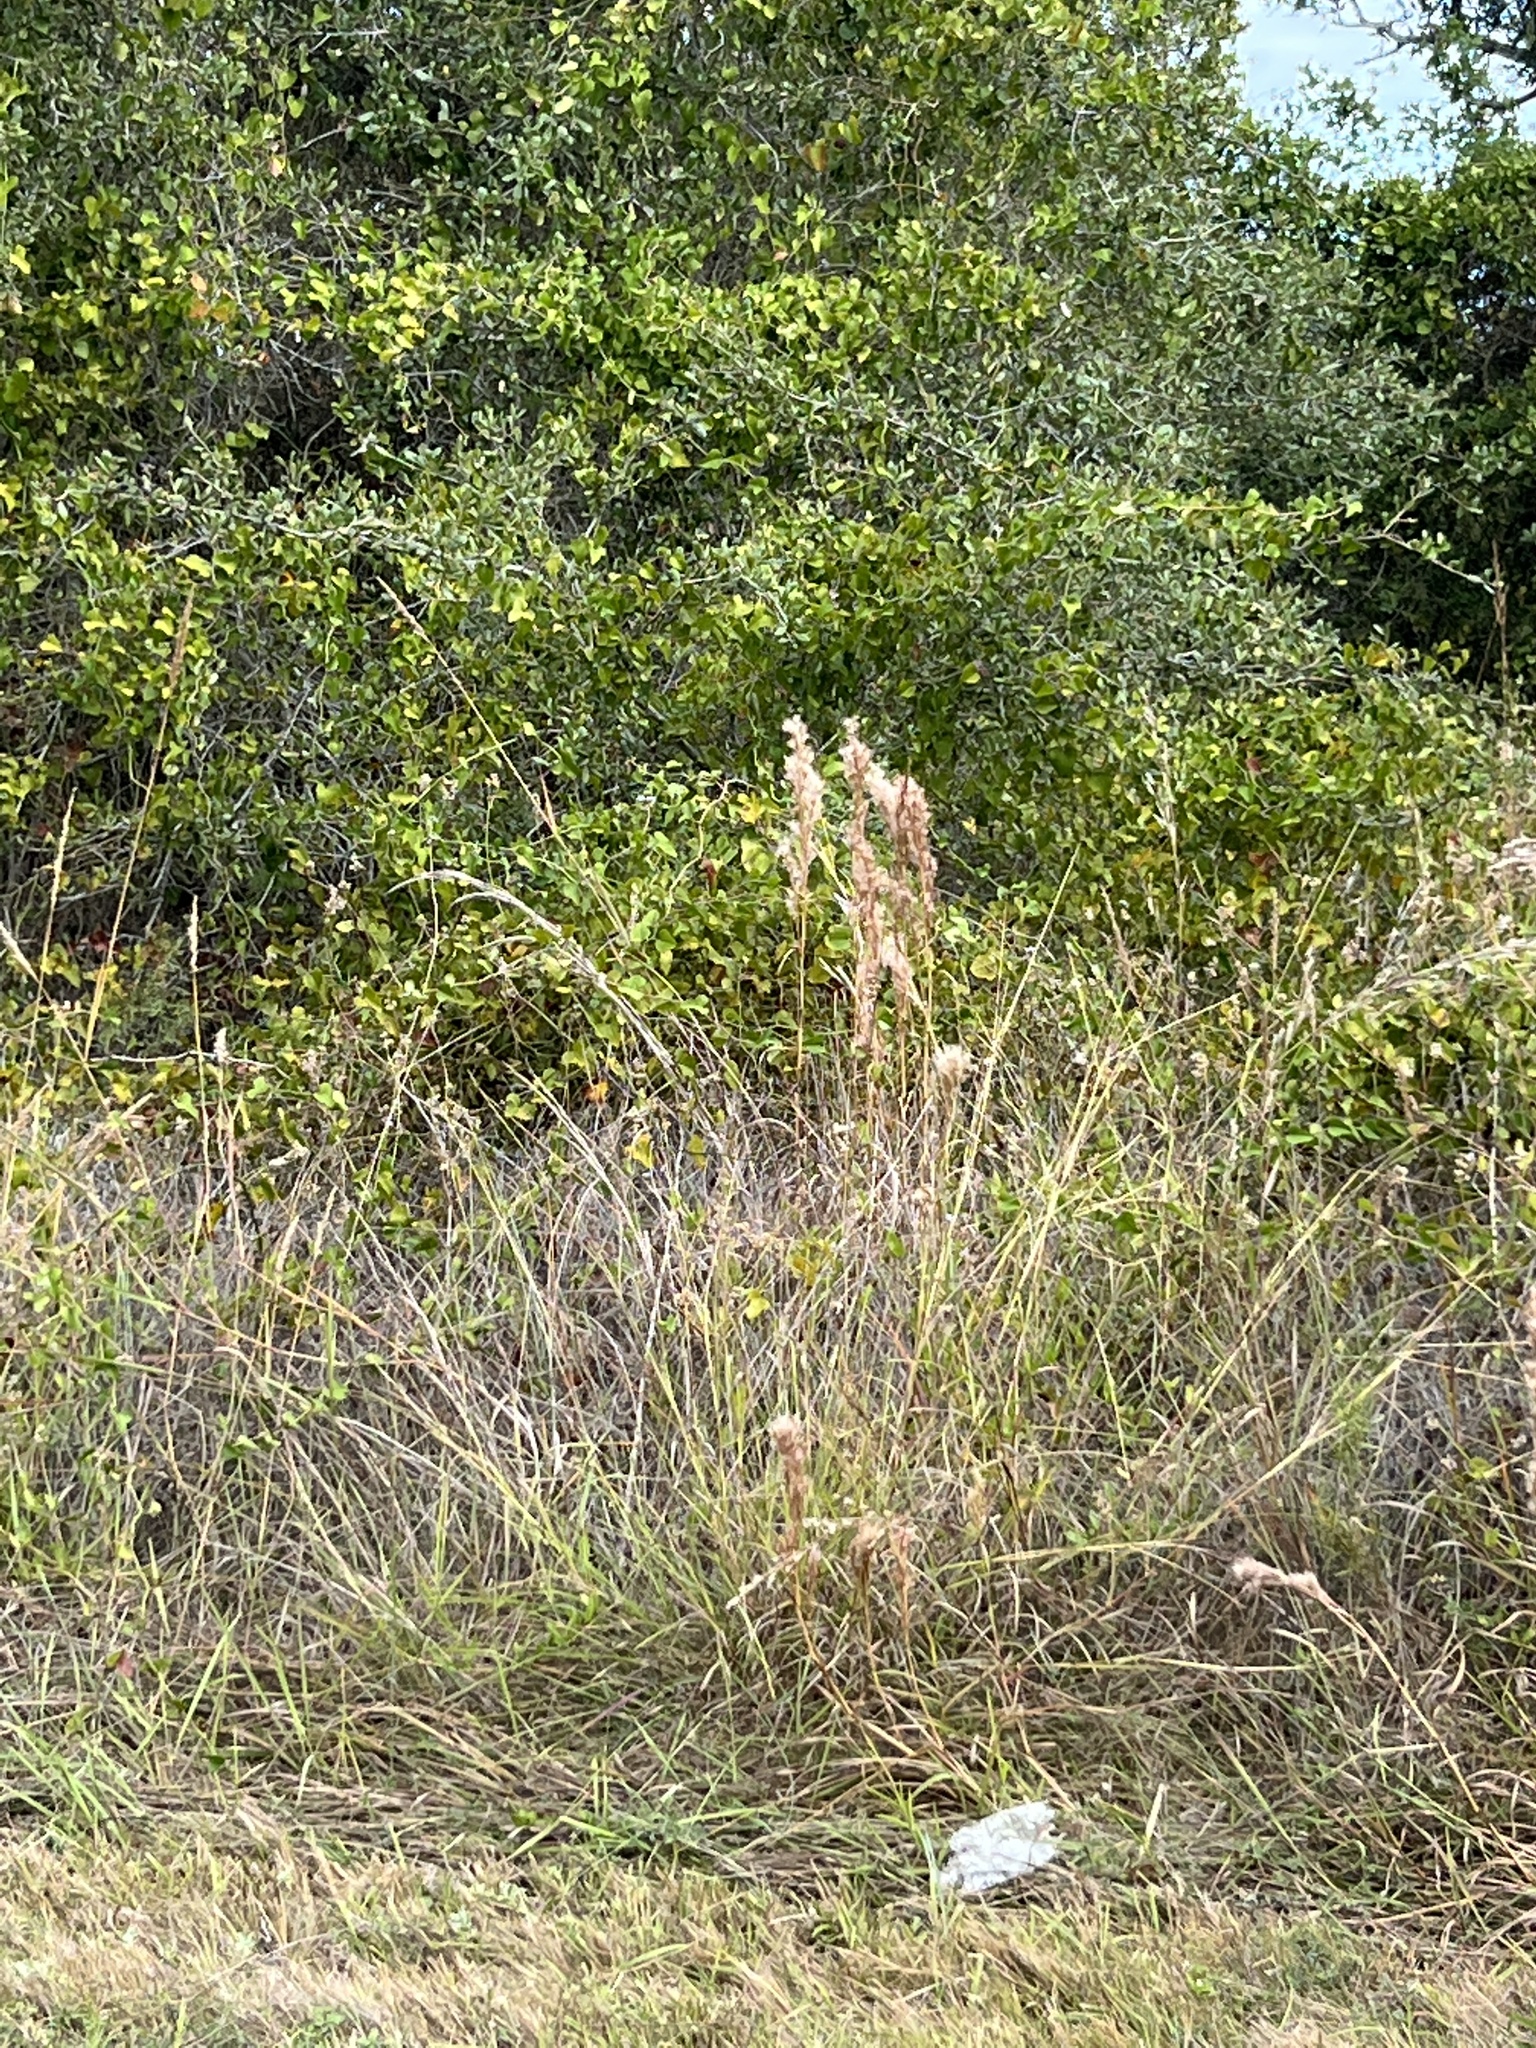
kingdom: Plantae
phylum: Tracheophyta
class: Liliopsida
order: Poales
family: Poaceae
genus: Andropogon
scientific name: Andropogon tenuispatheus
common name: Bushy bluestem
